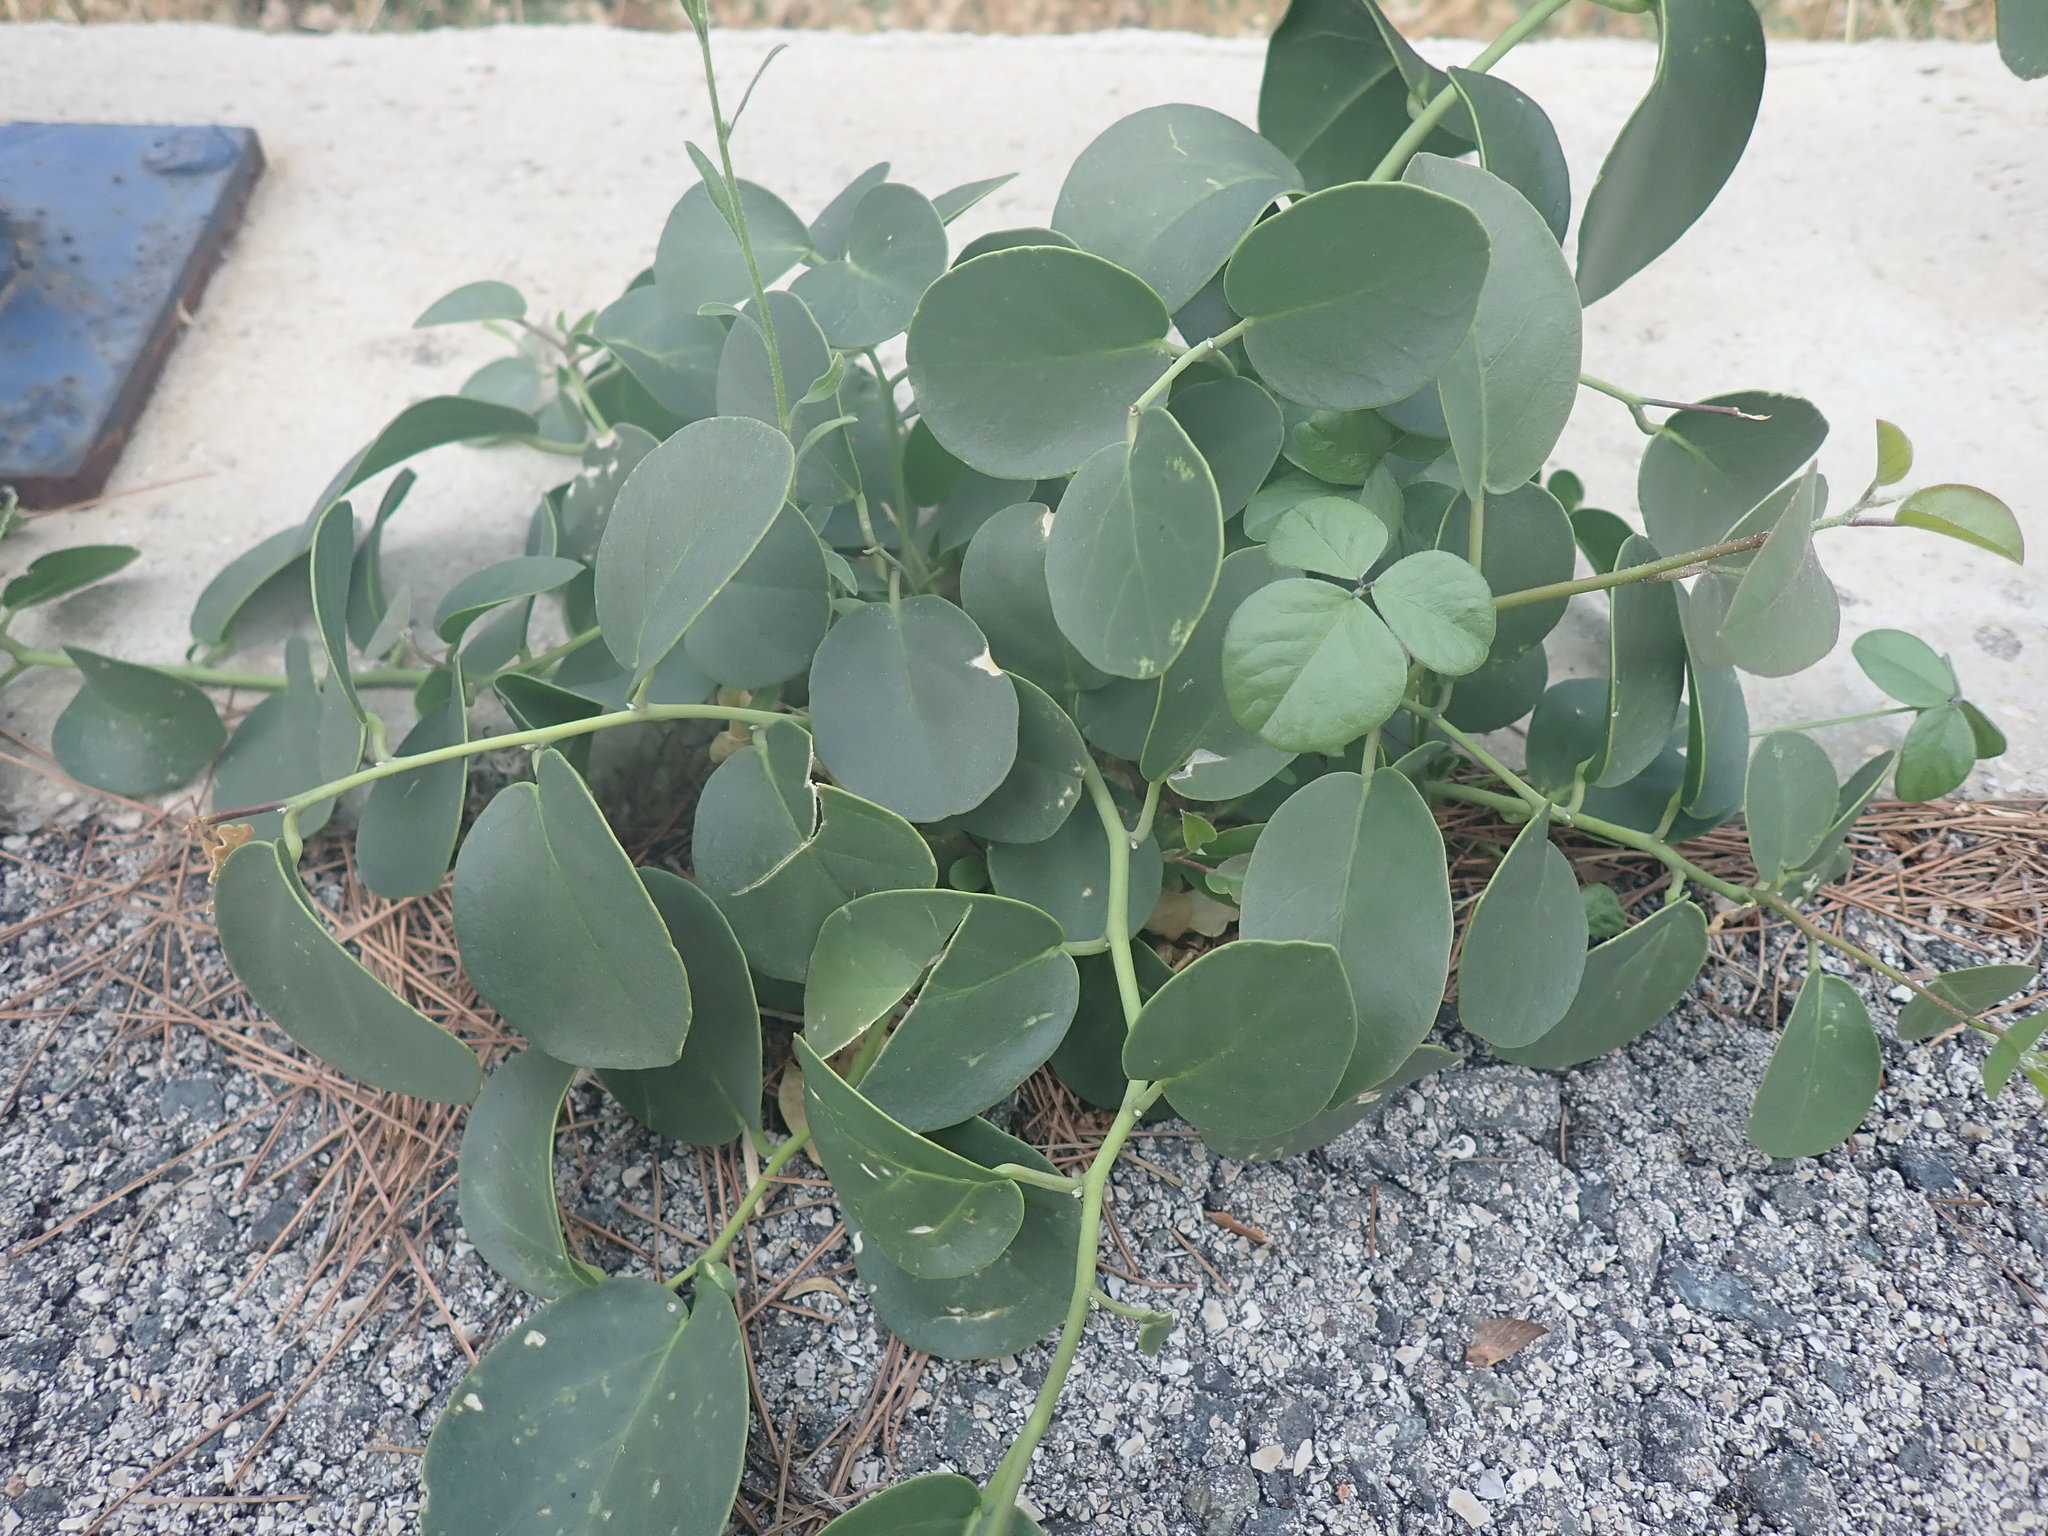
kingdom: Plantae
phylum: Tracheophyta
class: Magnoliopsida
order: Brassicales
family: Capparaceae
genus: Capparis
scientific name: Capparis orientalis
